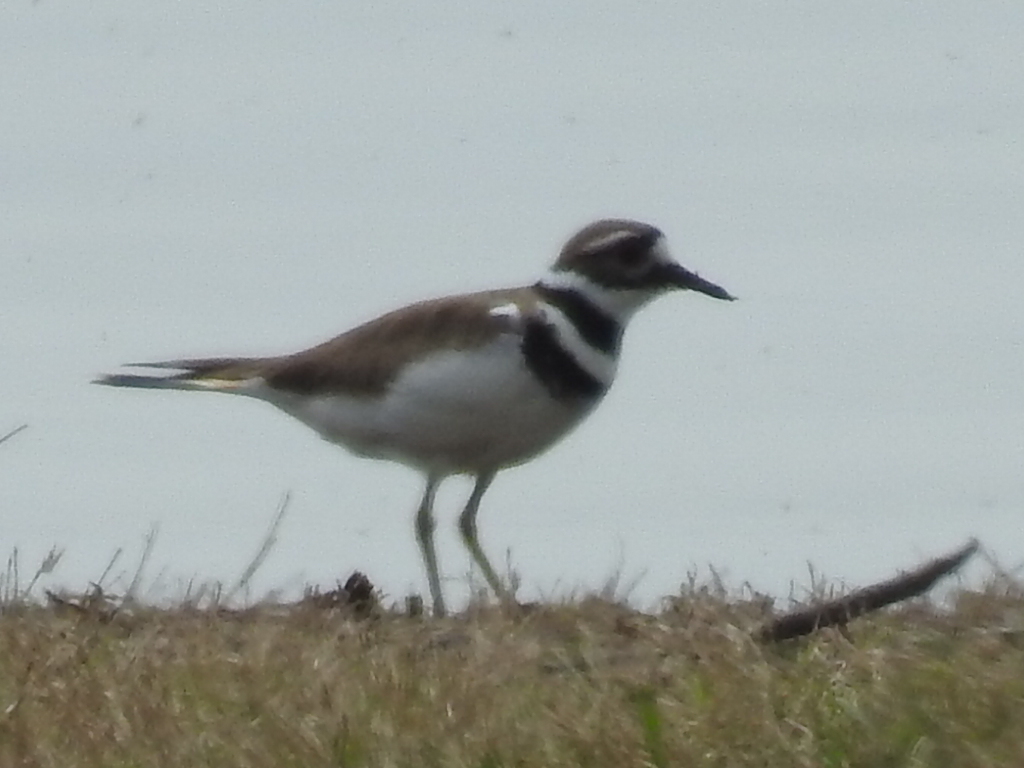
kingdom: Animalia
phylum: Chordata
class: Aves
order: Charadriiformes
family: Charadriidae
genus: Charadrius
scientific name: Charadrius vociferus
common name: Killdeer
